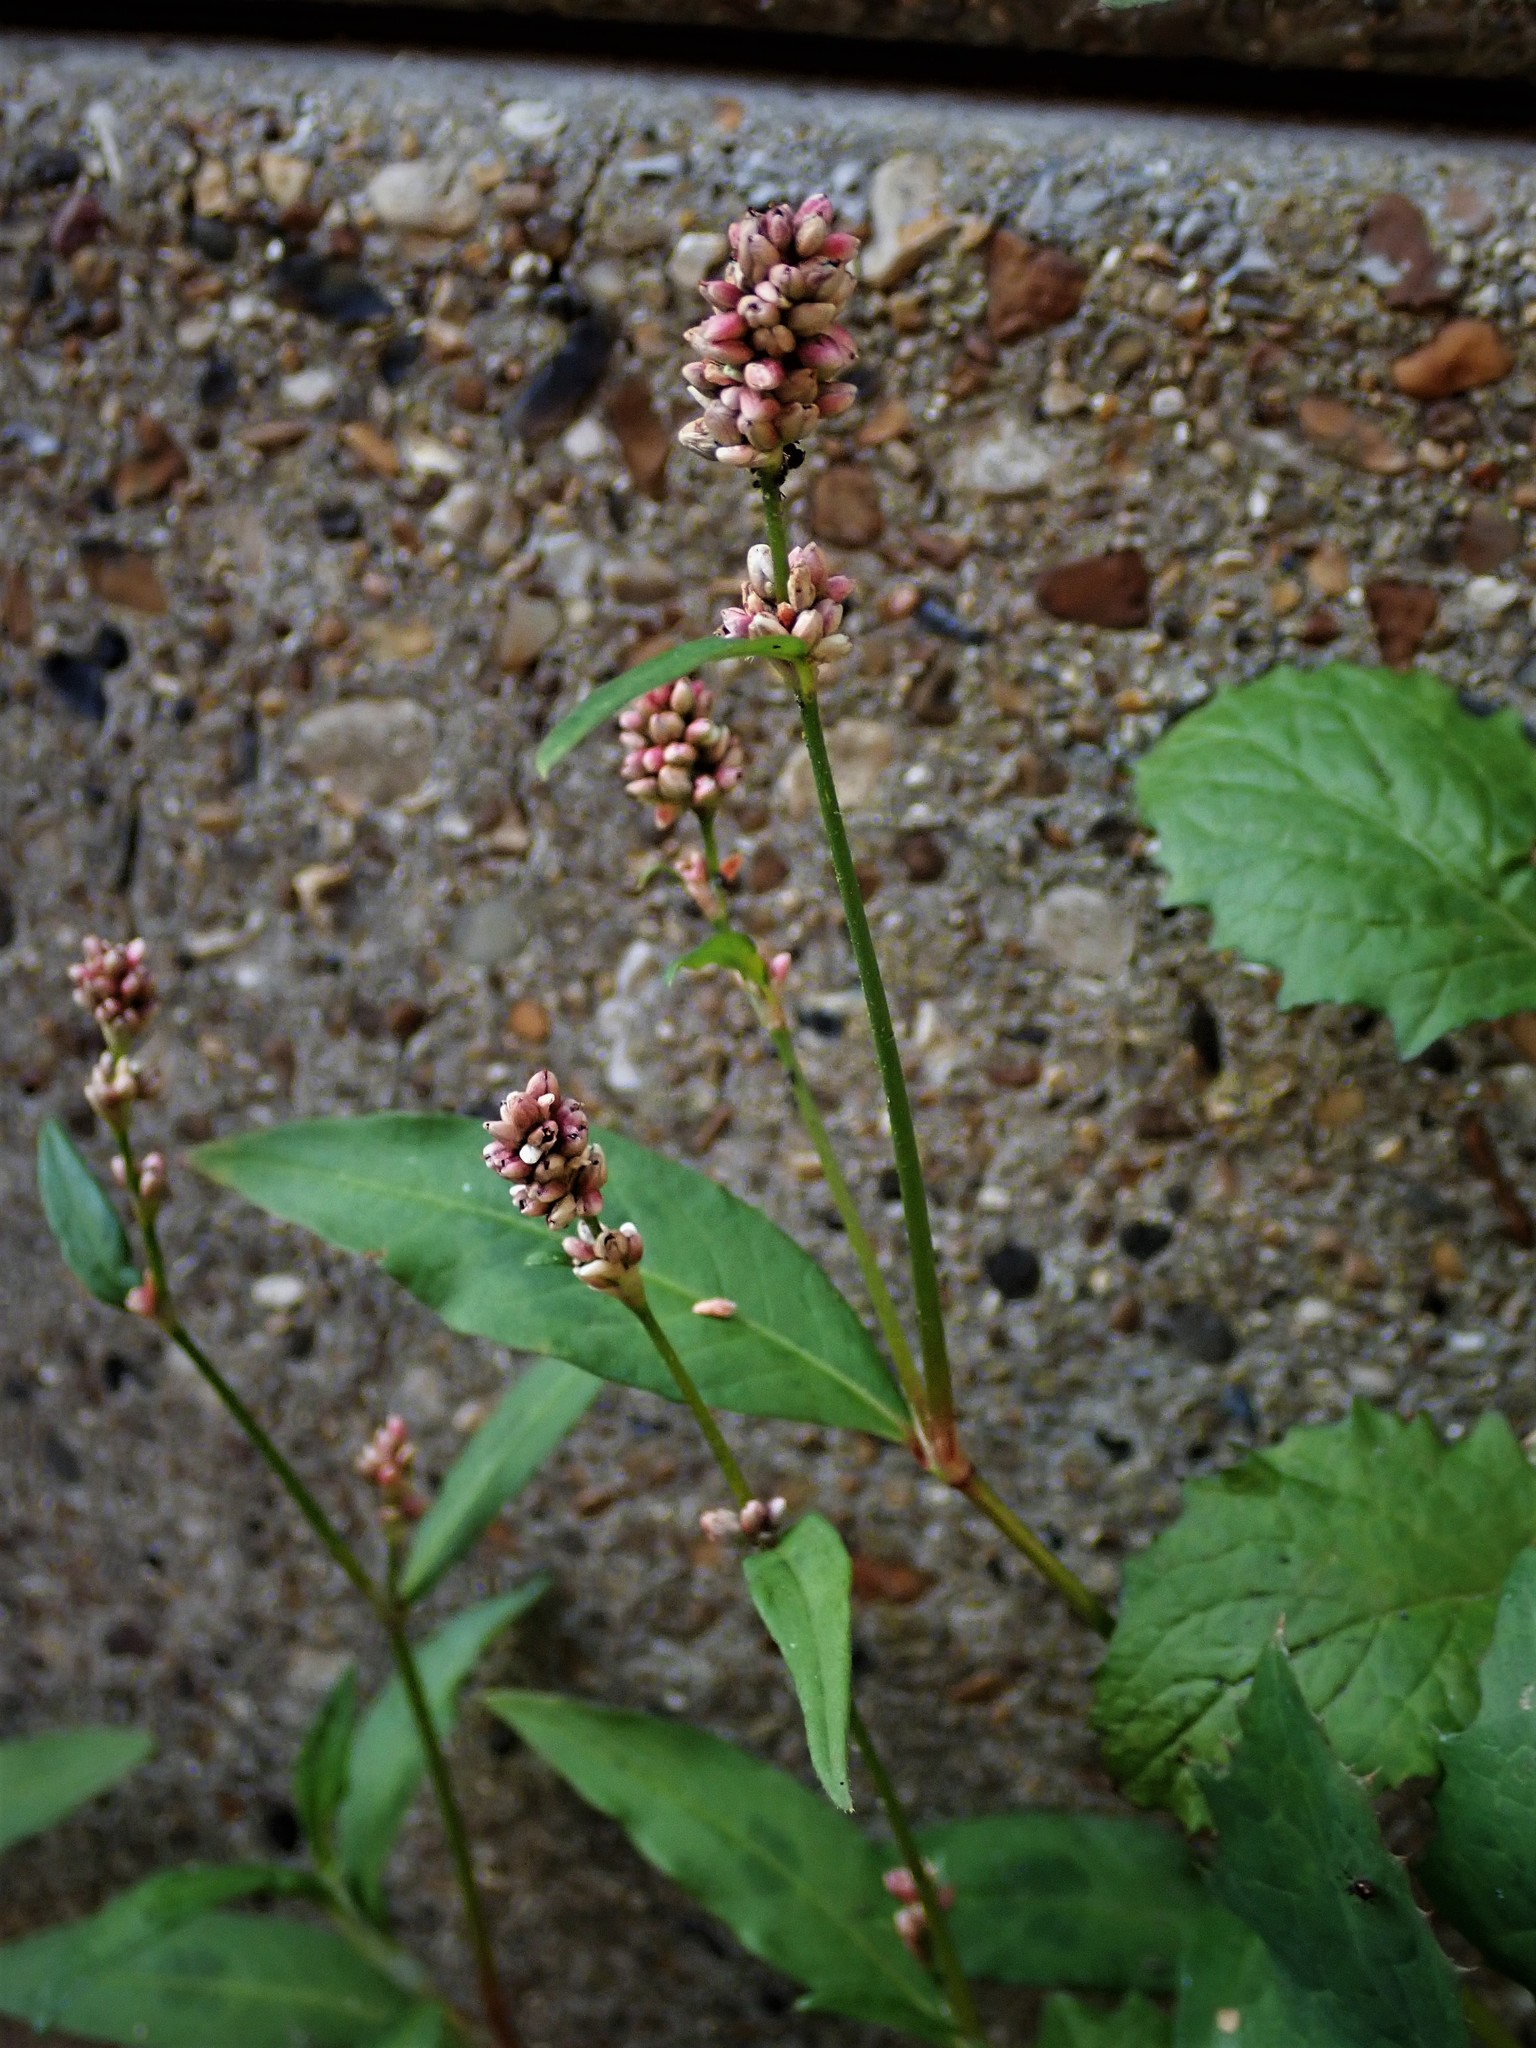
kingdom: Plantae
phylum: Tracheophyta
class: Magnoliopsida
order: Caryophyllales
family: Polygonaceae
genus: Persicaria
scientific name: Persicaria maculosa
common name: Redshank
